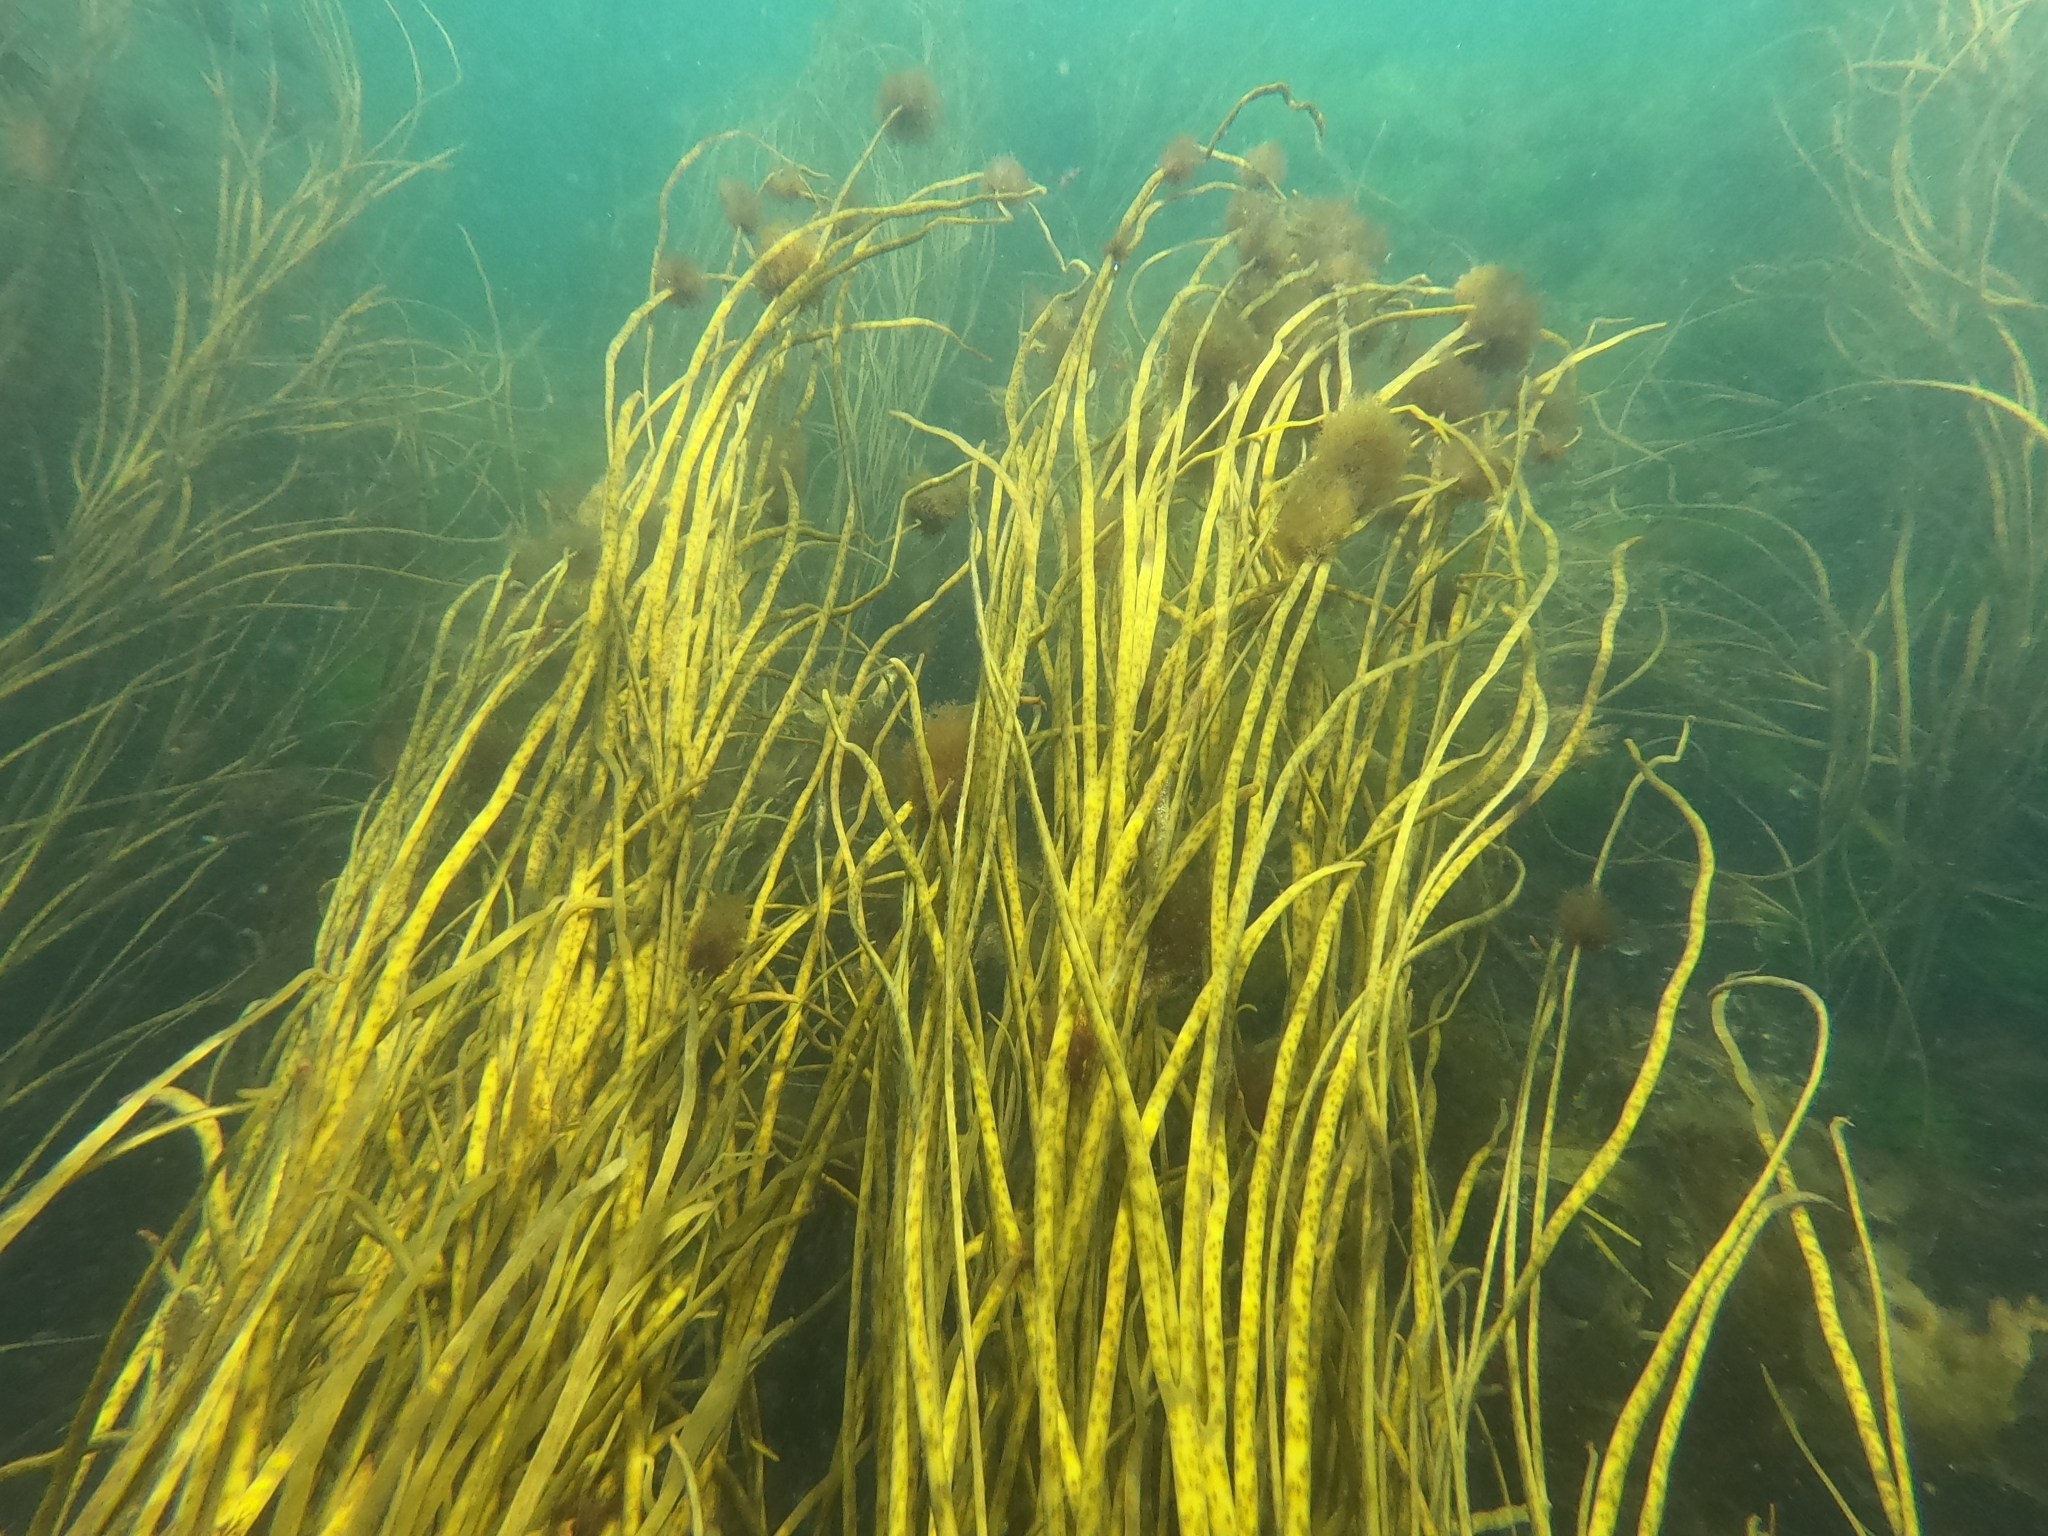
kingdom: Chromista
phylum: Ochrophyta
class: Phaeophyceae
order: Fucales
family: Himanthaliaceae
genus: Himanthalia
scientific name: Himanthalia elongata
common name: Sea-thong
